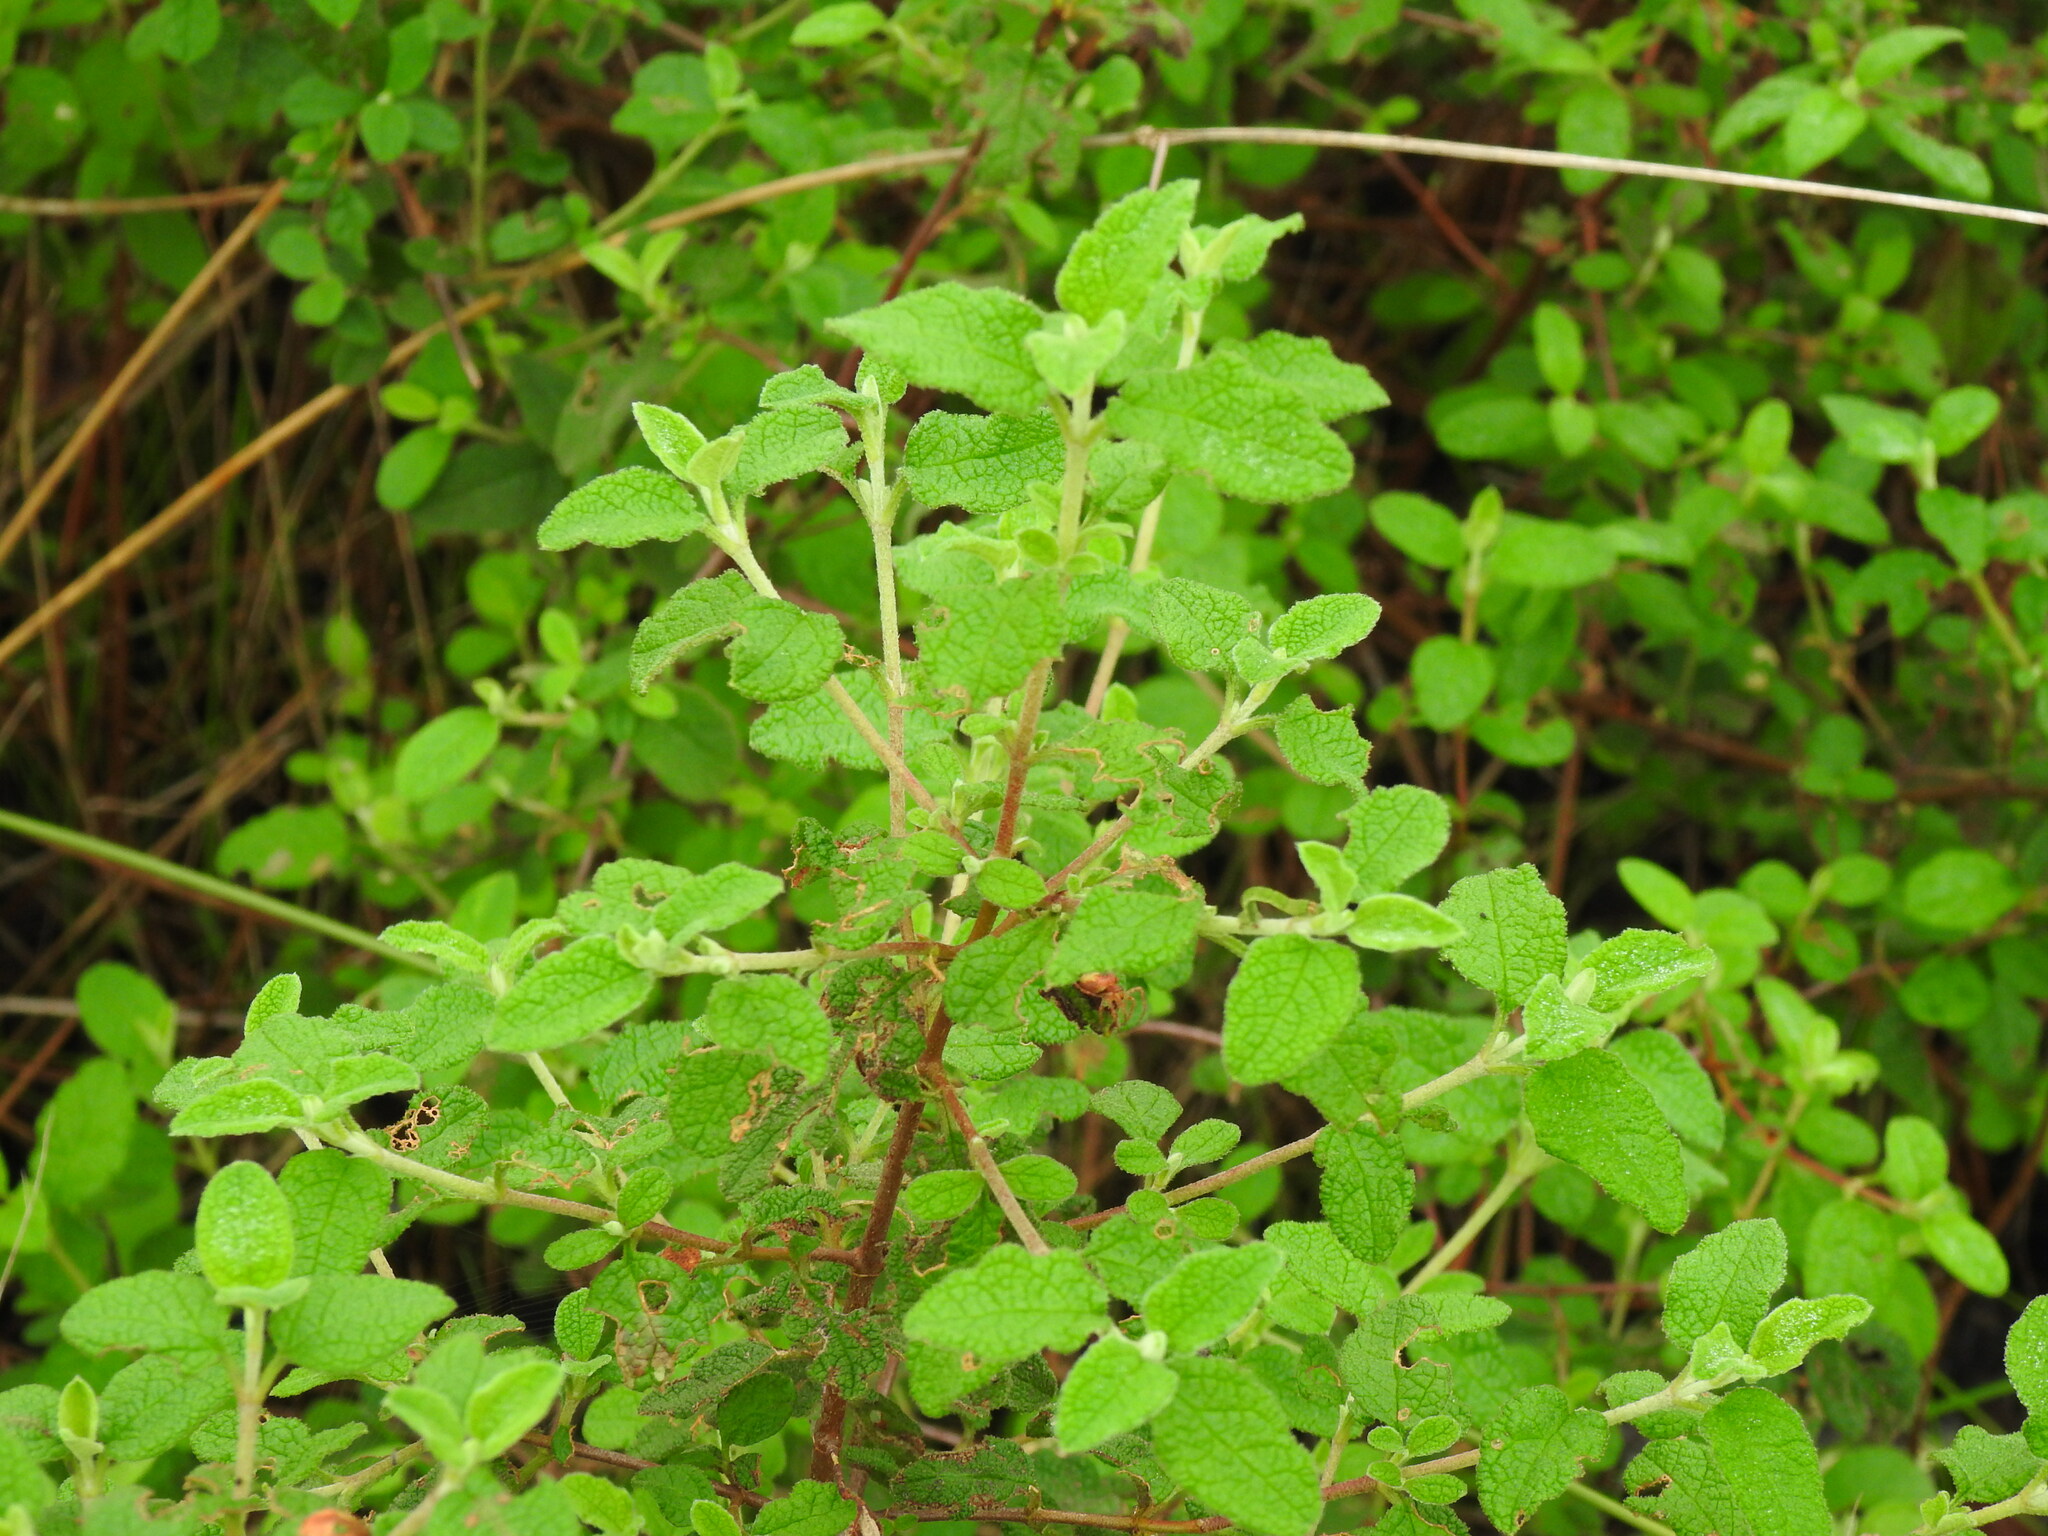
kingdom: Plantae
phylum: Tracheophyta
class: Magnoliopsida
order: Malvales
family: Cistaceae
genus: Cistus
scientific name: Cistus salviifolius
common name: Salvia cistus
